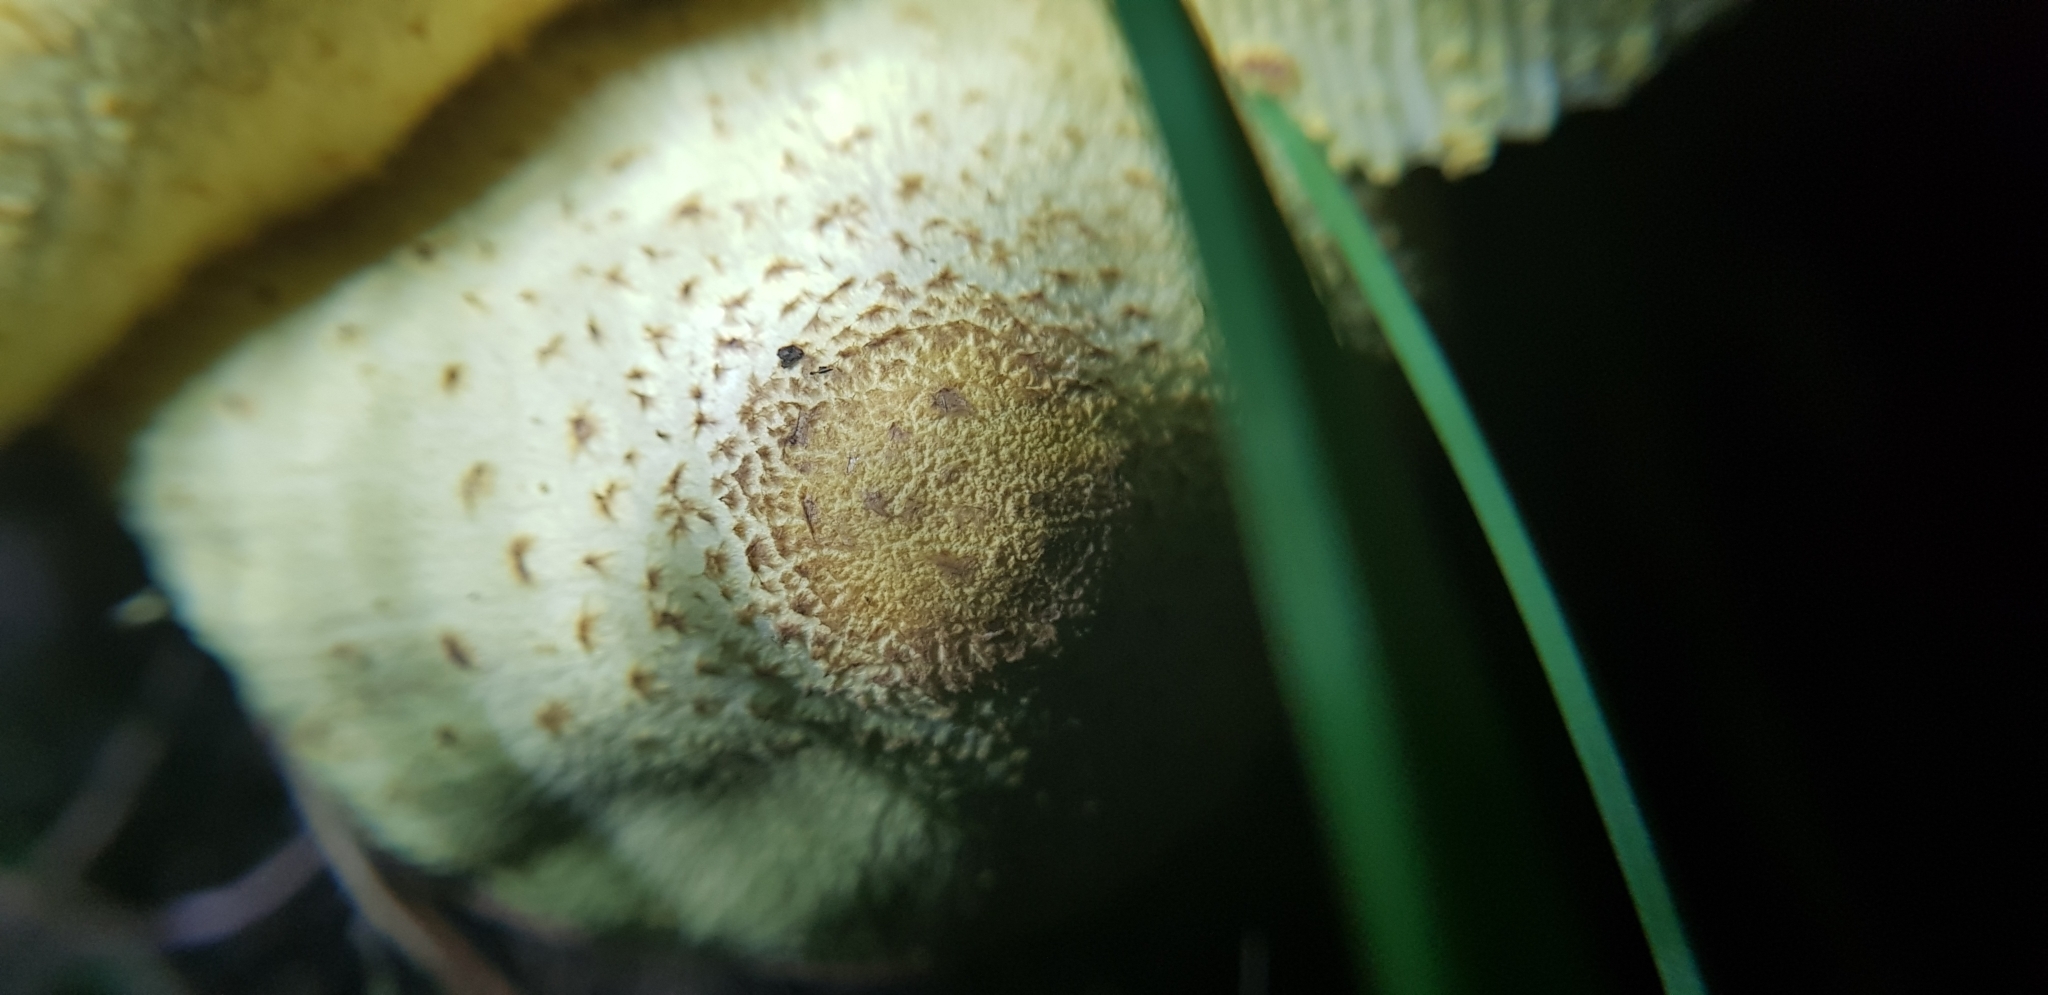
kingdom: Fungi
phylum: Basidiomycota
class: Agaricomycetes
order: Agaricales
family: Agaricaceae
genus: Leucocoprinus
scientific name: Leucocoprinus birnbaumii
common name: Plantpot dapperling
